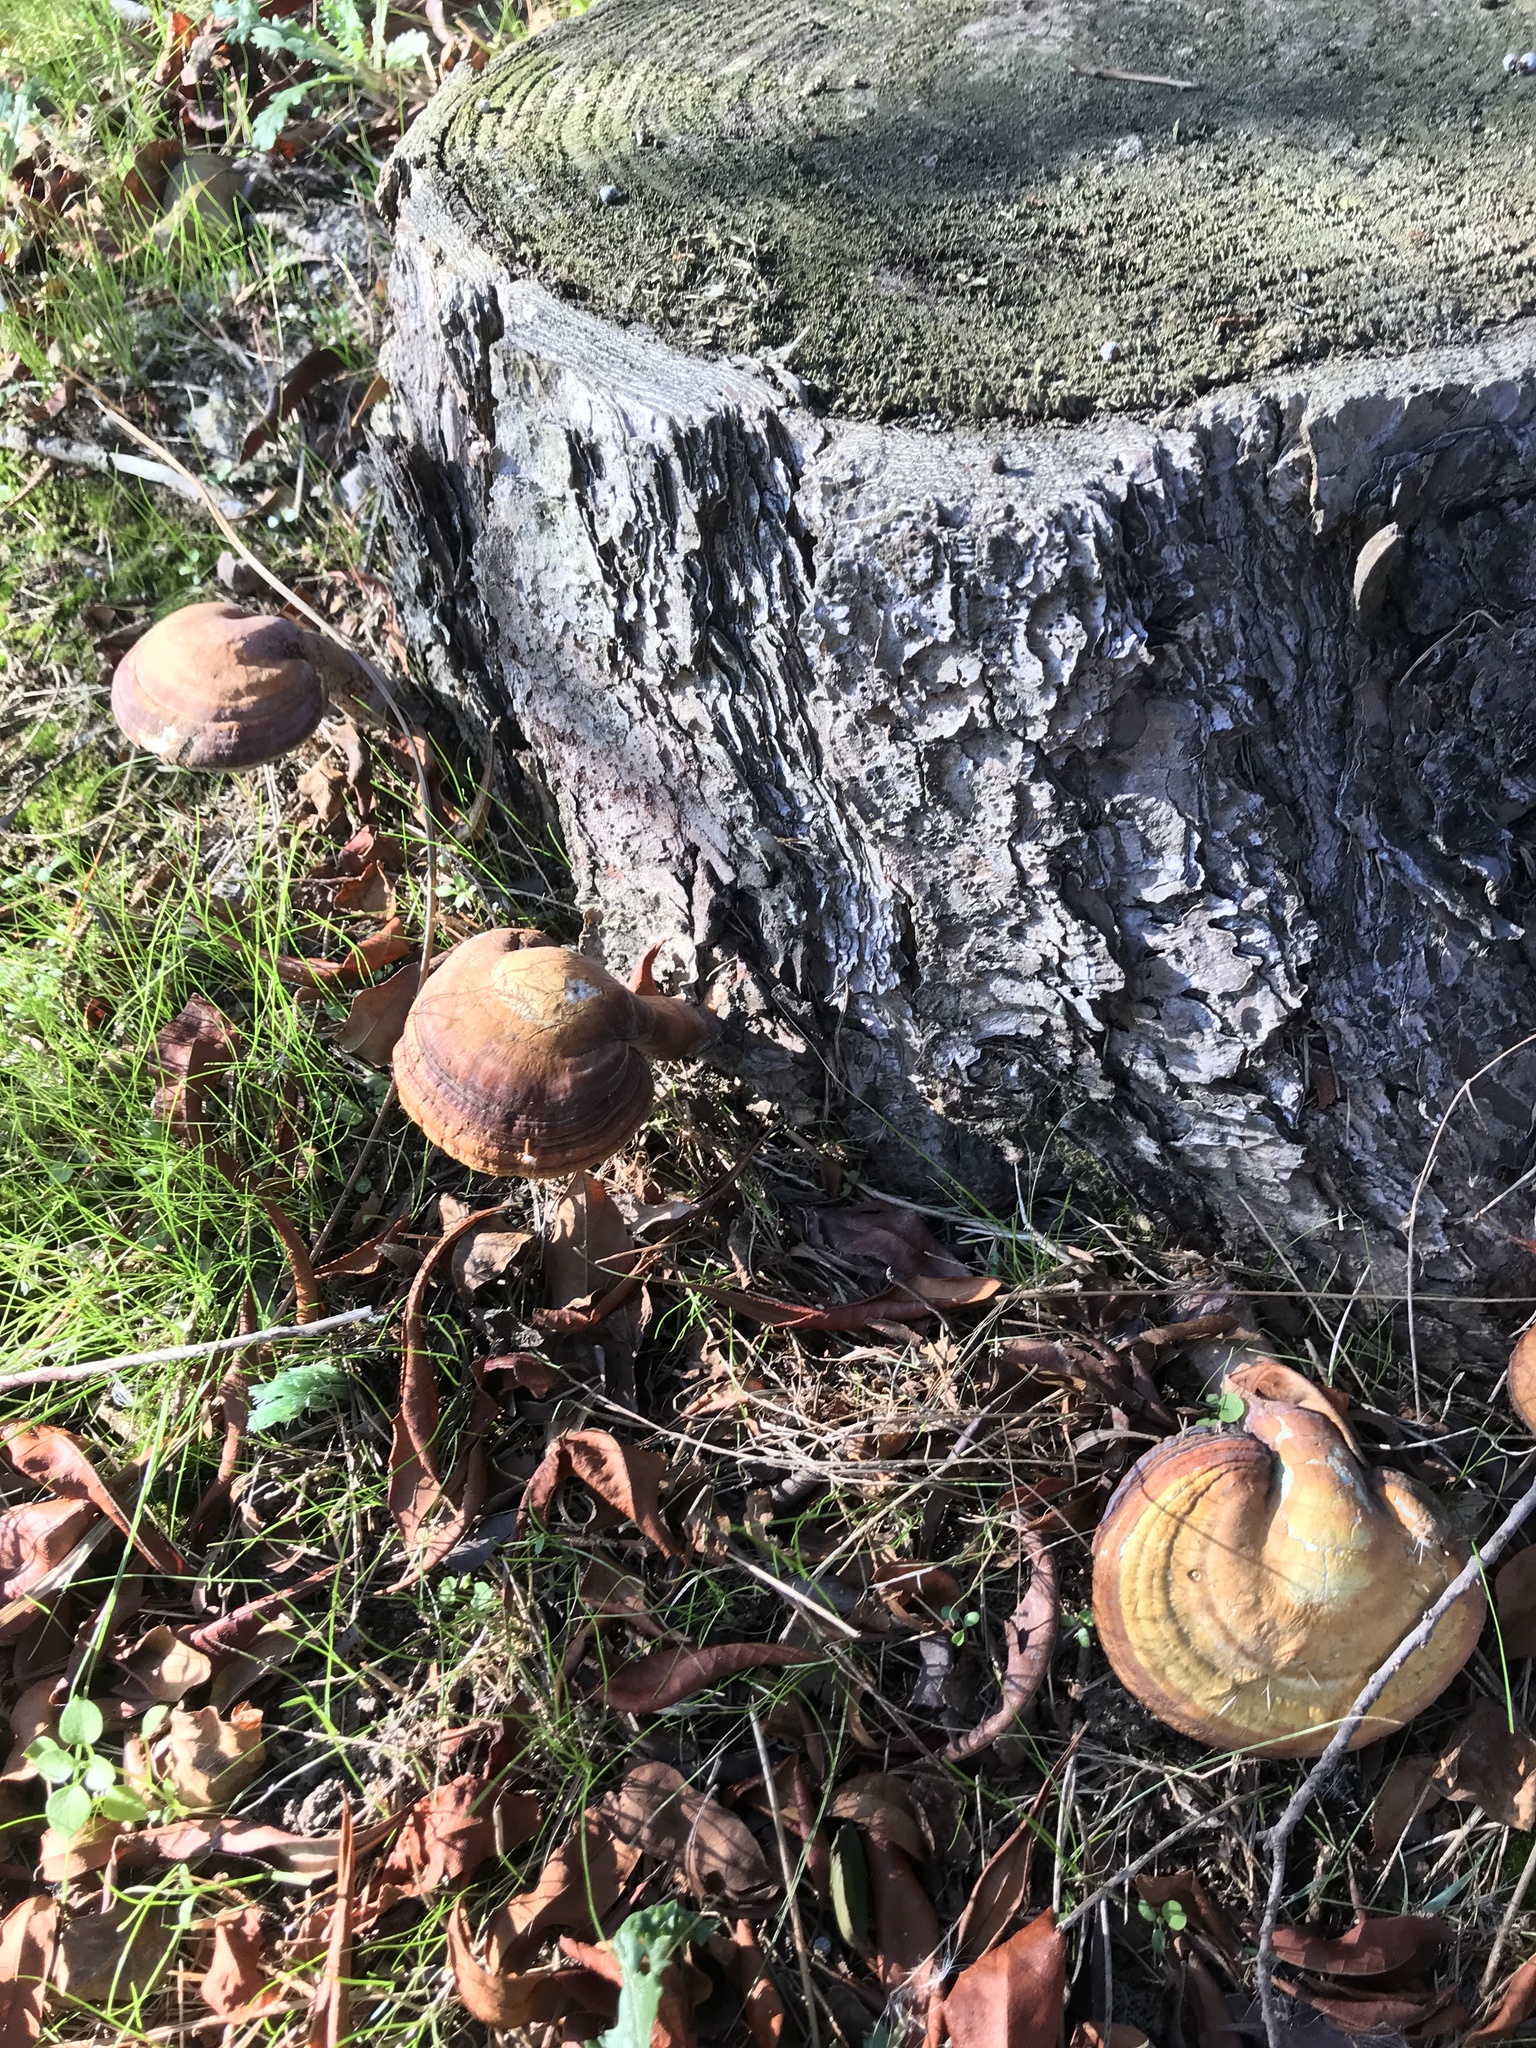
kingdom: Fungi
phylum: Basidiomycota
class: Agaricomycetes
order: Polyporales
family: Polyporaceae
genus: Ganoderma
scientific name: Ganoderma curtisii
